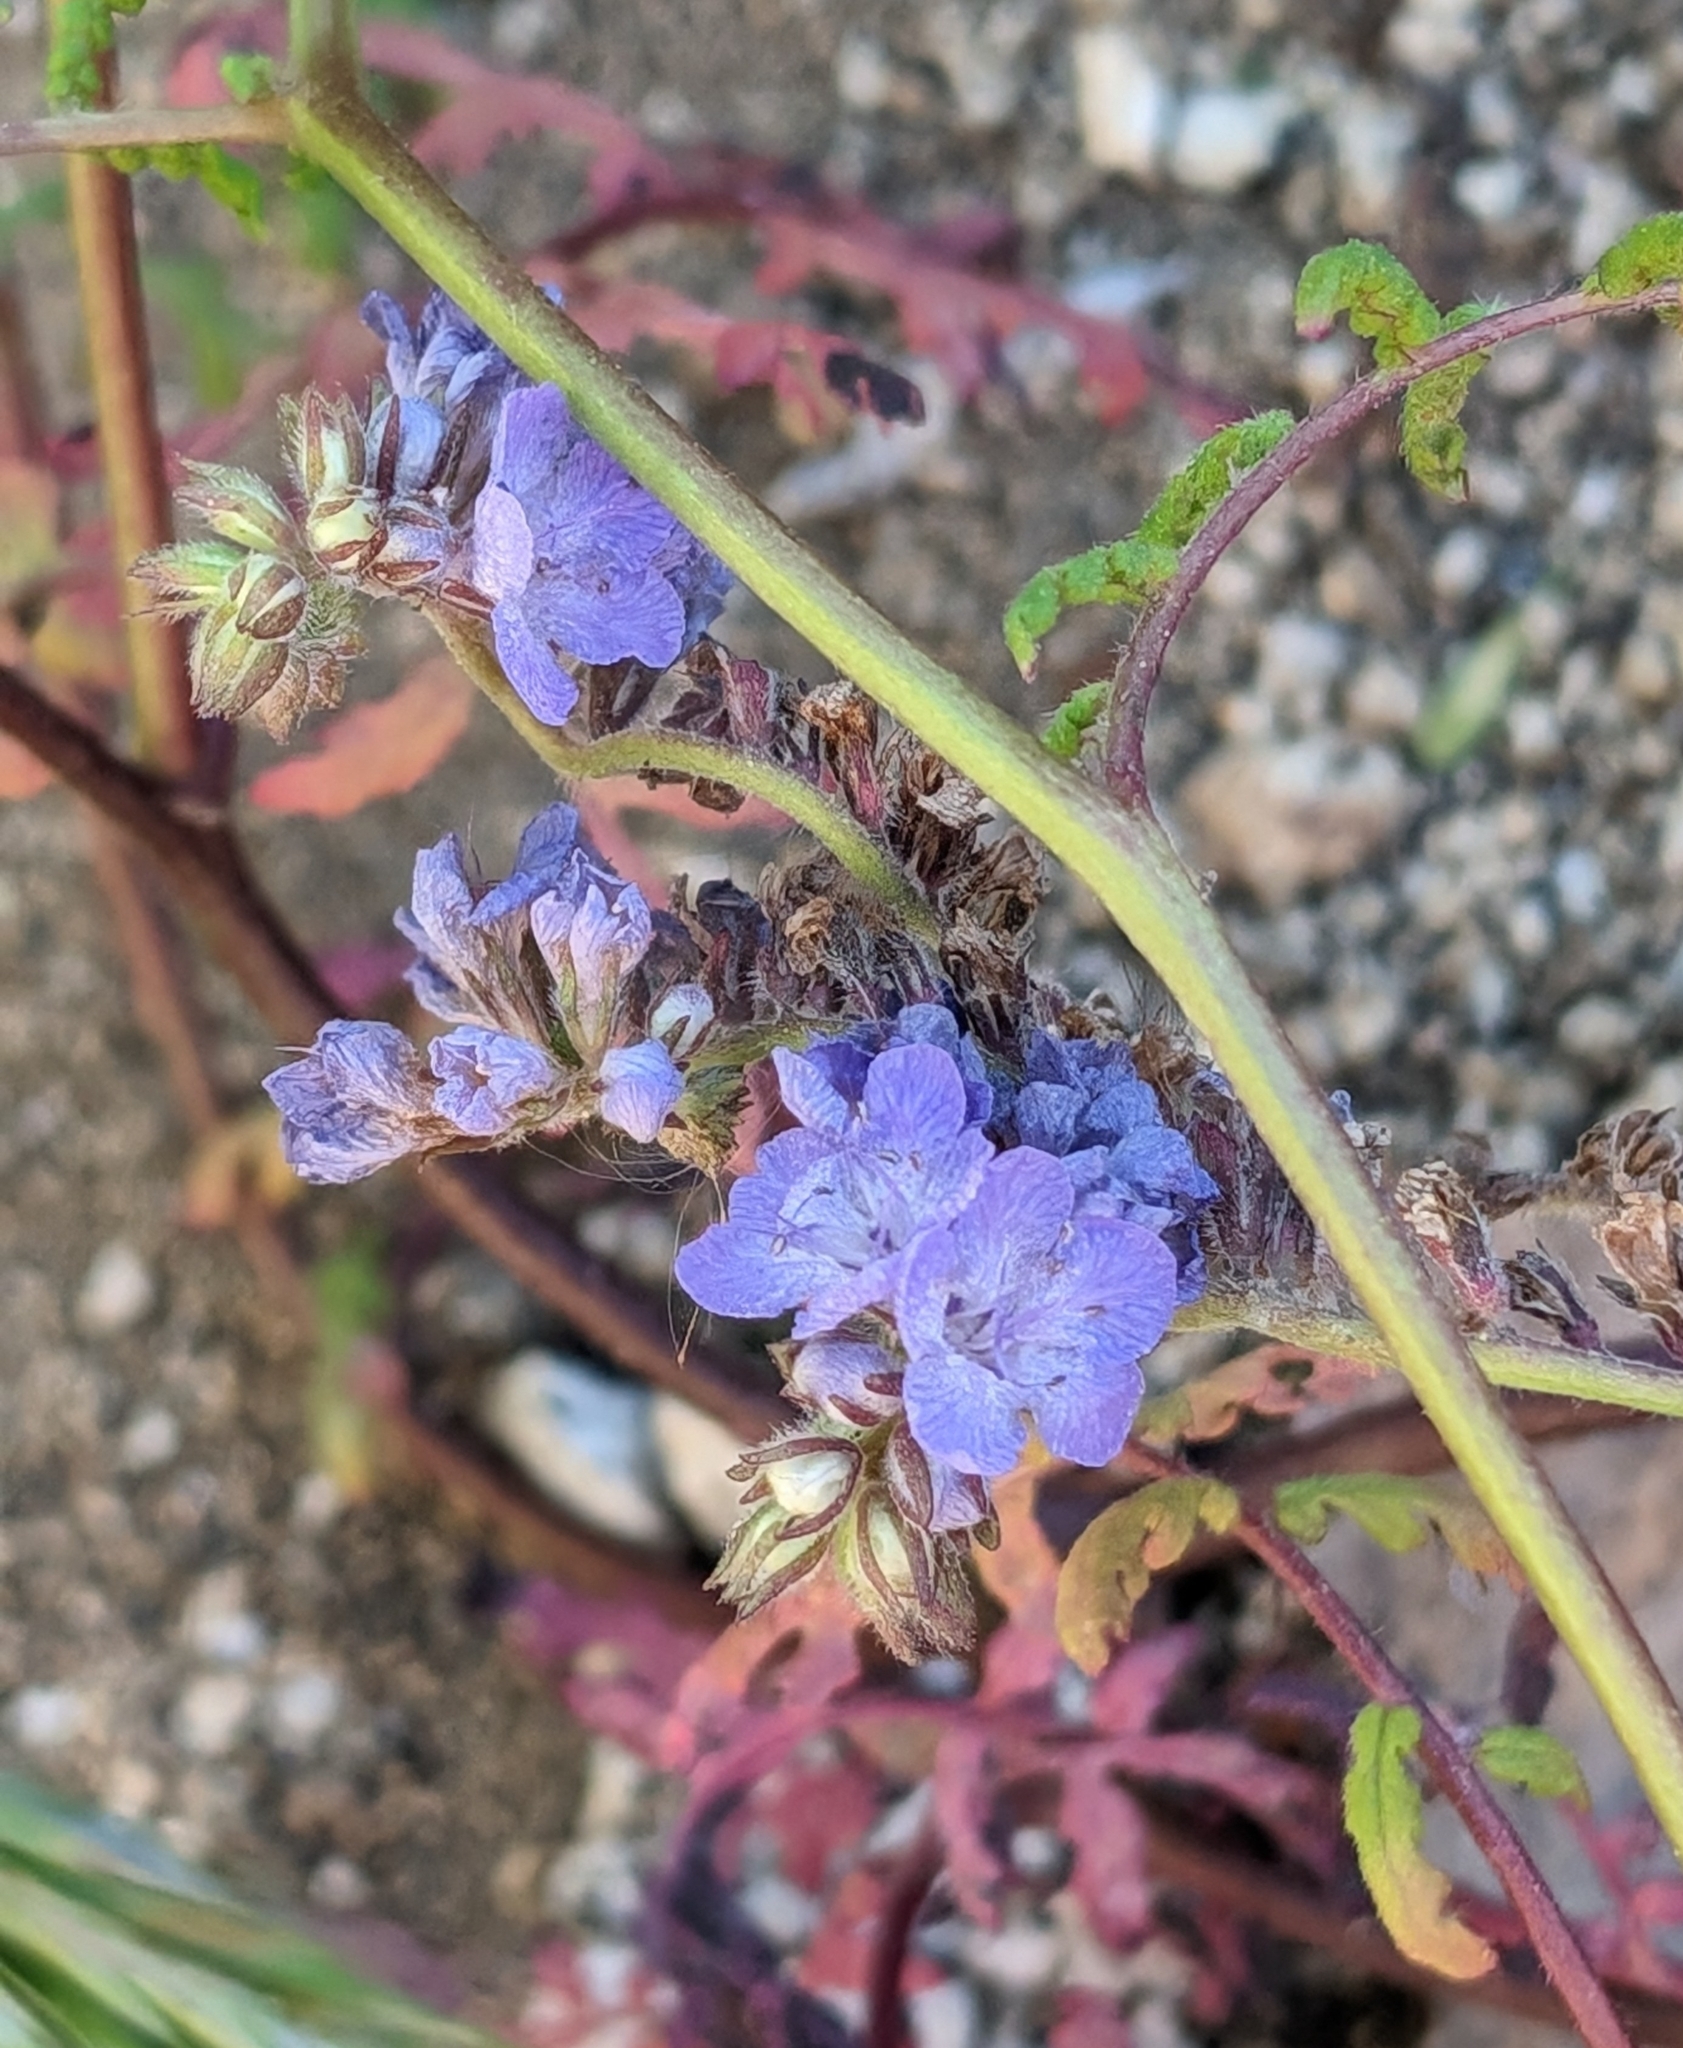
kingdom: Plantae
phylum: Tracheophyta
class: Magnoliopsida
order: Boraginales
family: Hydrophyllaceae
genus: Phacelia
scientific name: Phacelia distans
